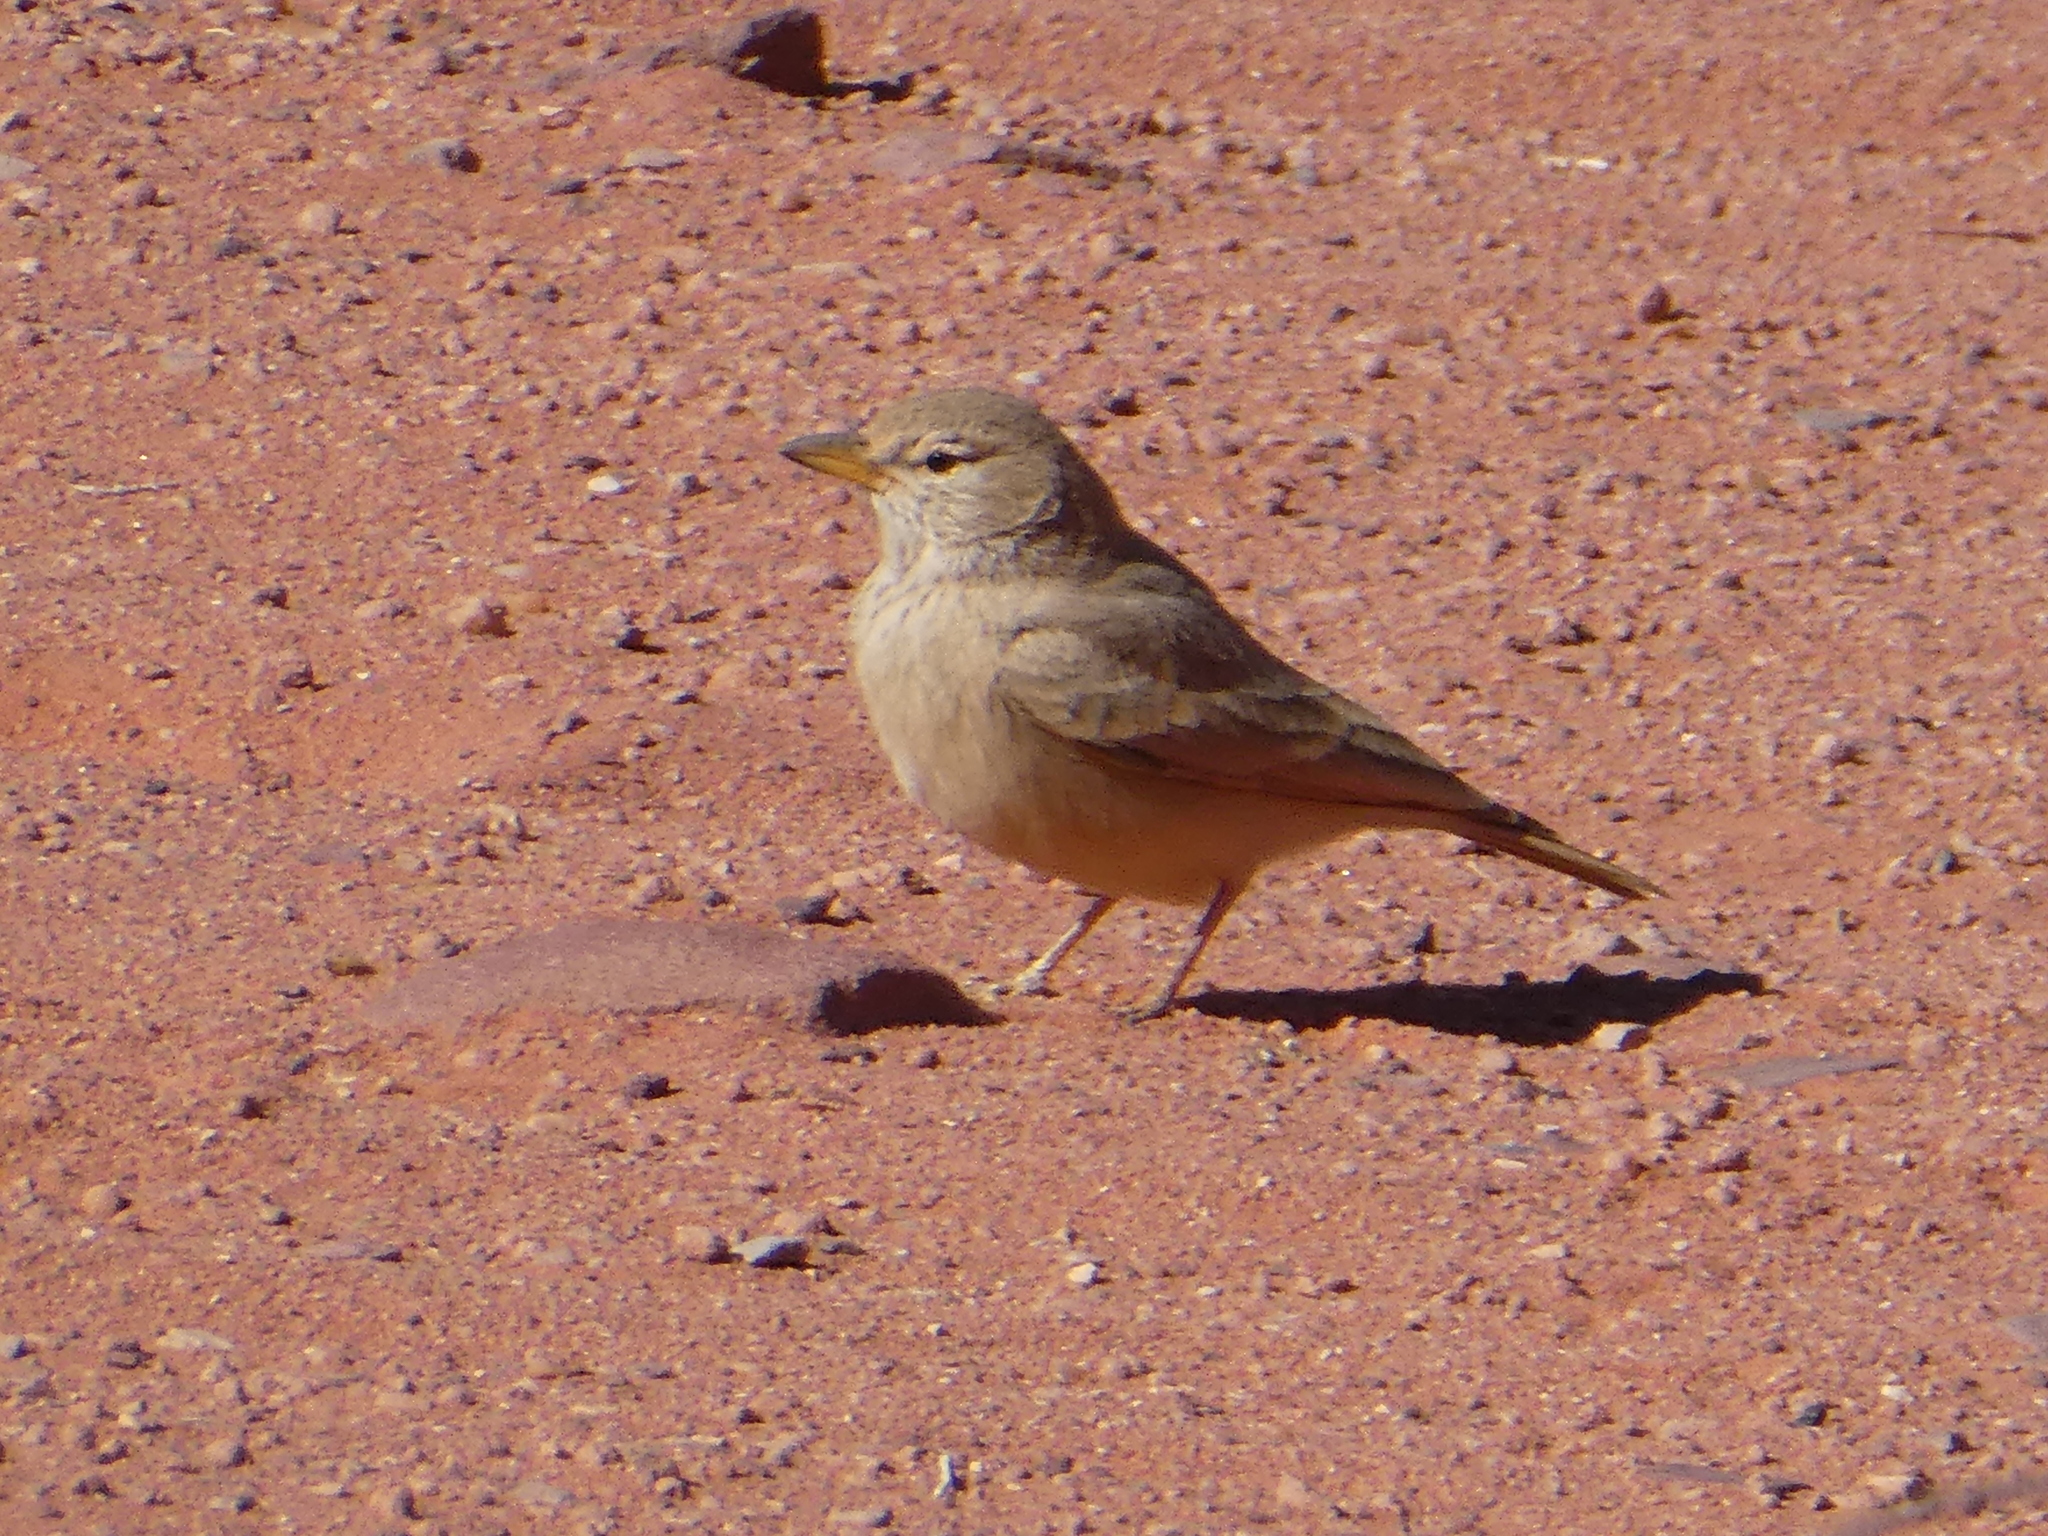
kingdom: Animalia
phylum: Chordata
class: Aves
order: Passeriformes
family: Alaudidae
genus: Ammomanes
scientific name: Ammomanes deserti
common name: Desert lark
